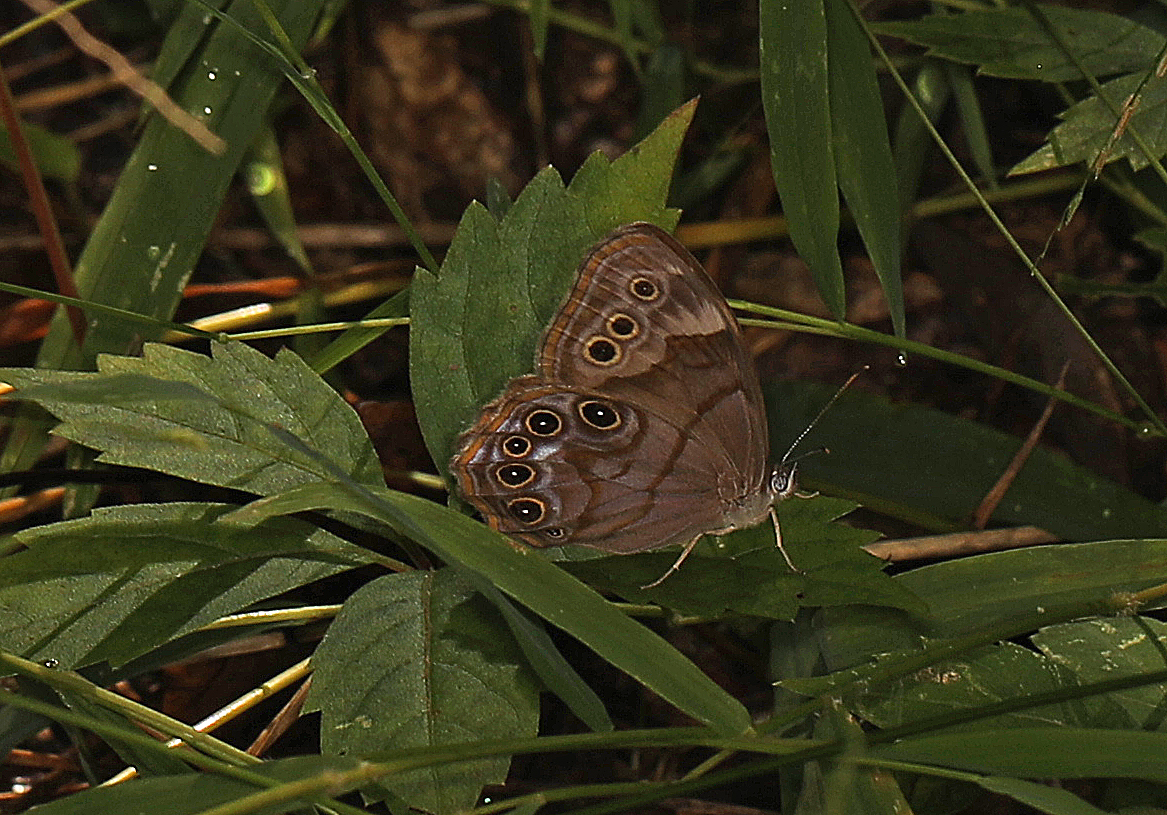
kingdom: Animalia
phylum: Arthropoda
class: Insecta
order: Lepidoptera
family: Nymphalidae
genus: Lethe
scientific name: Lethe anthedon
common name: Northern pearly-eye
